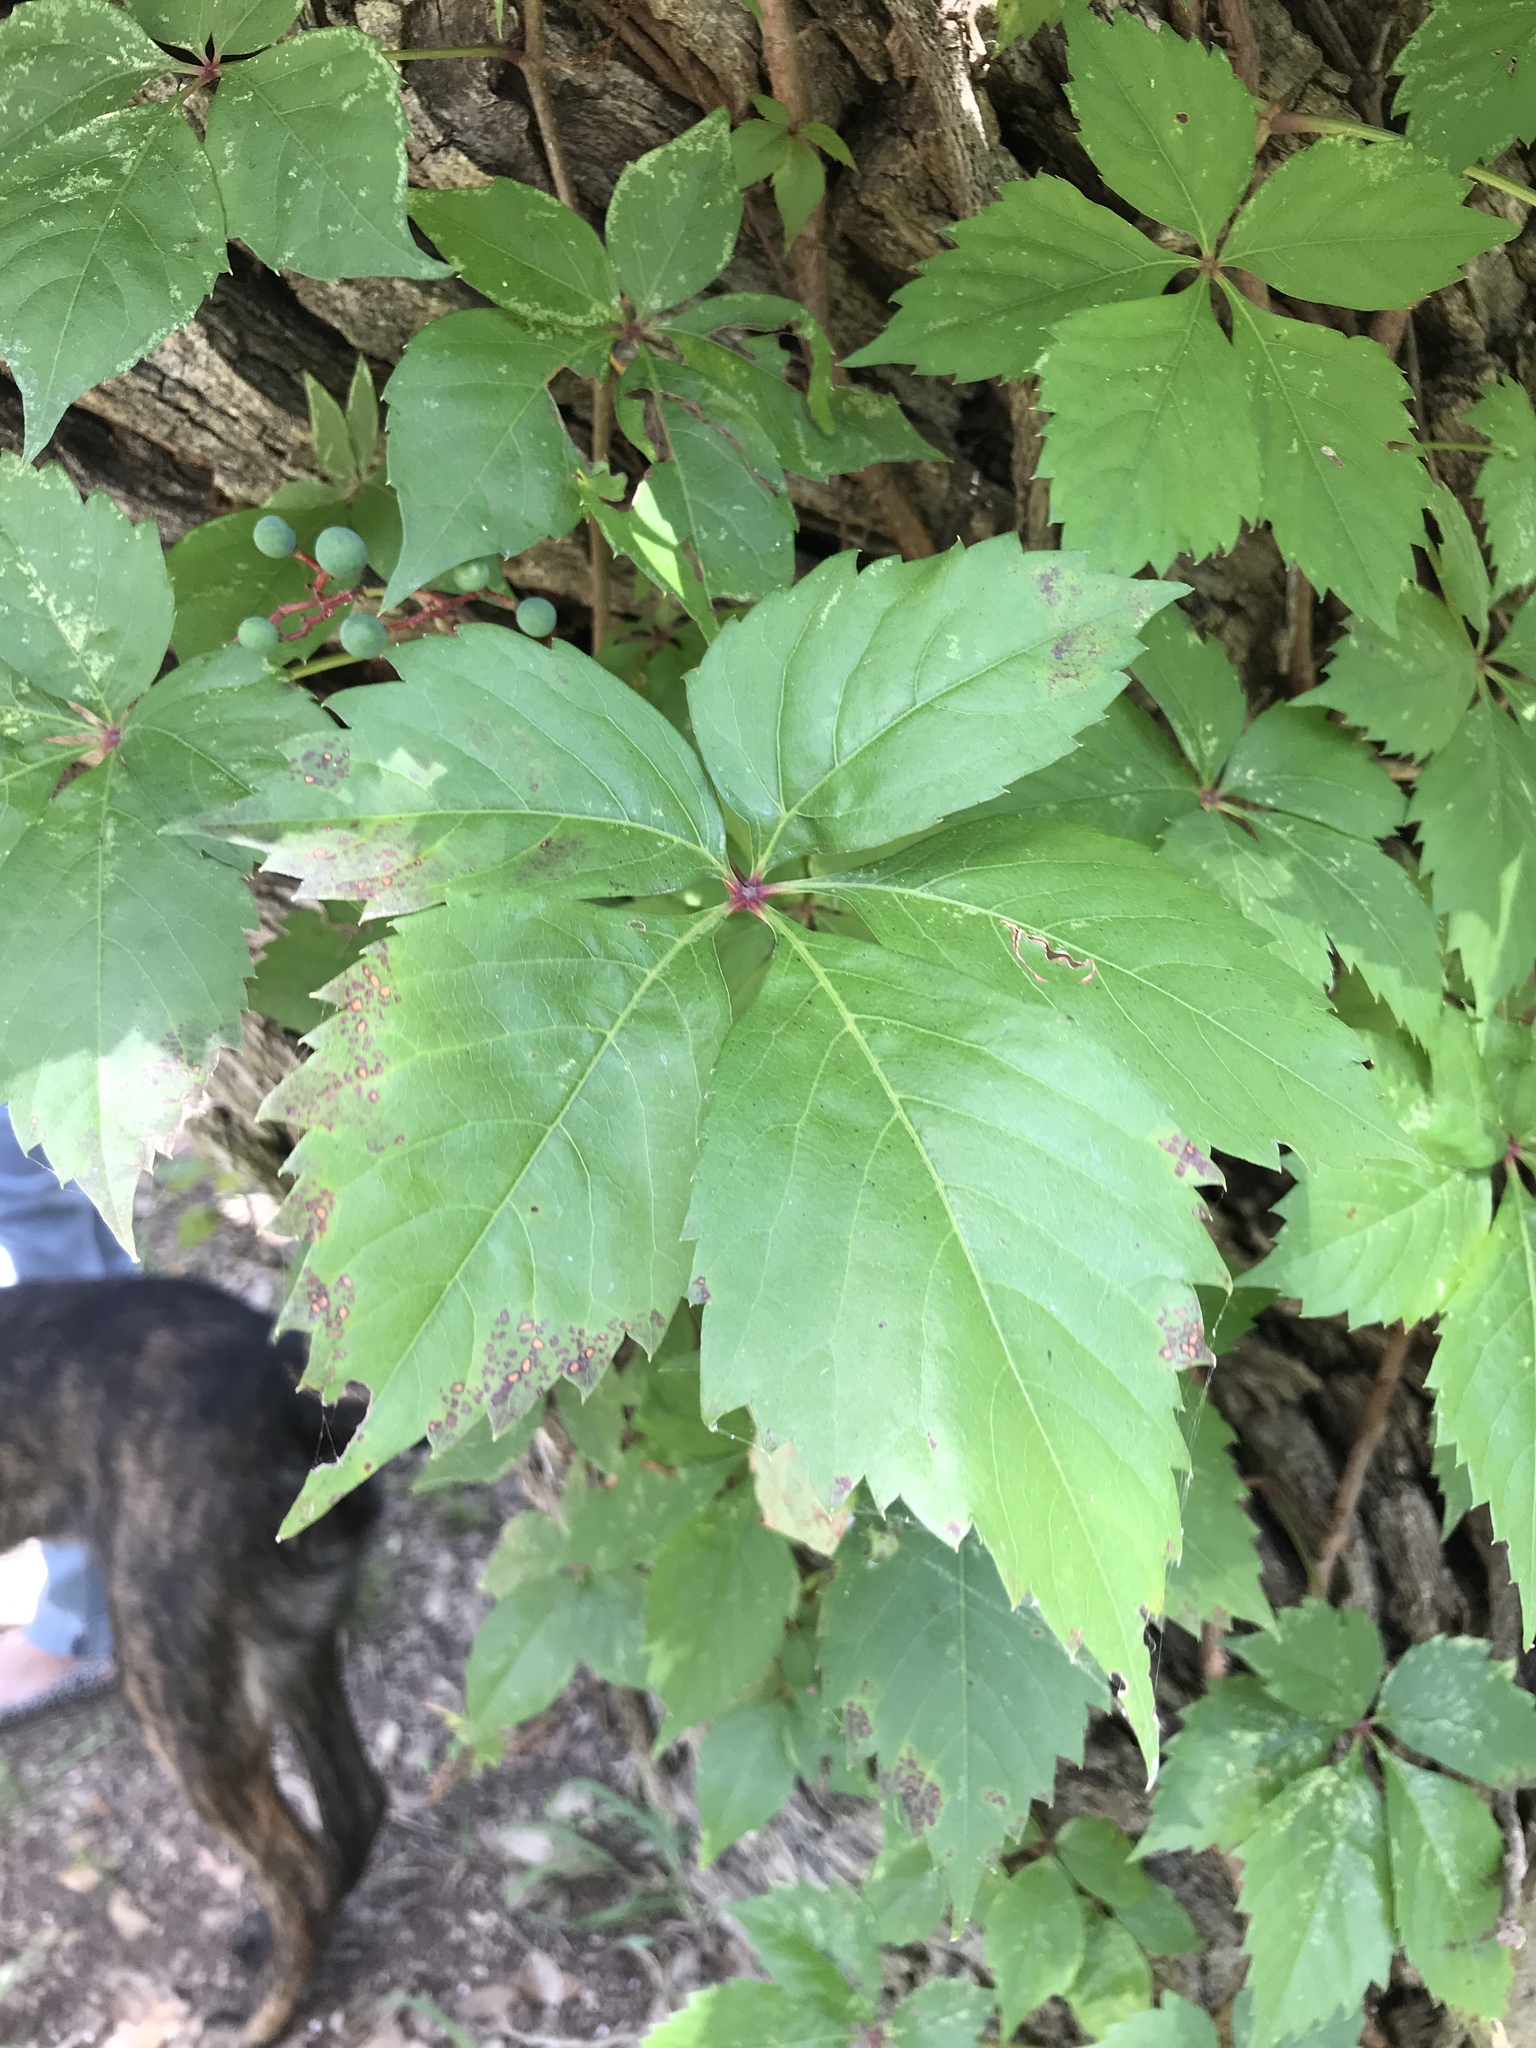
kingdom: Plantae
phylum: Tracheophyta
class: Magnoliopsida
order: Vitales
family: Vitaceae
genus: Parthenocissus
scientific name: Parthenocissus quinquefolia
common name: Virginia-creeper
